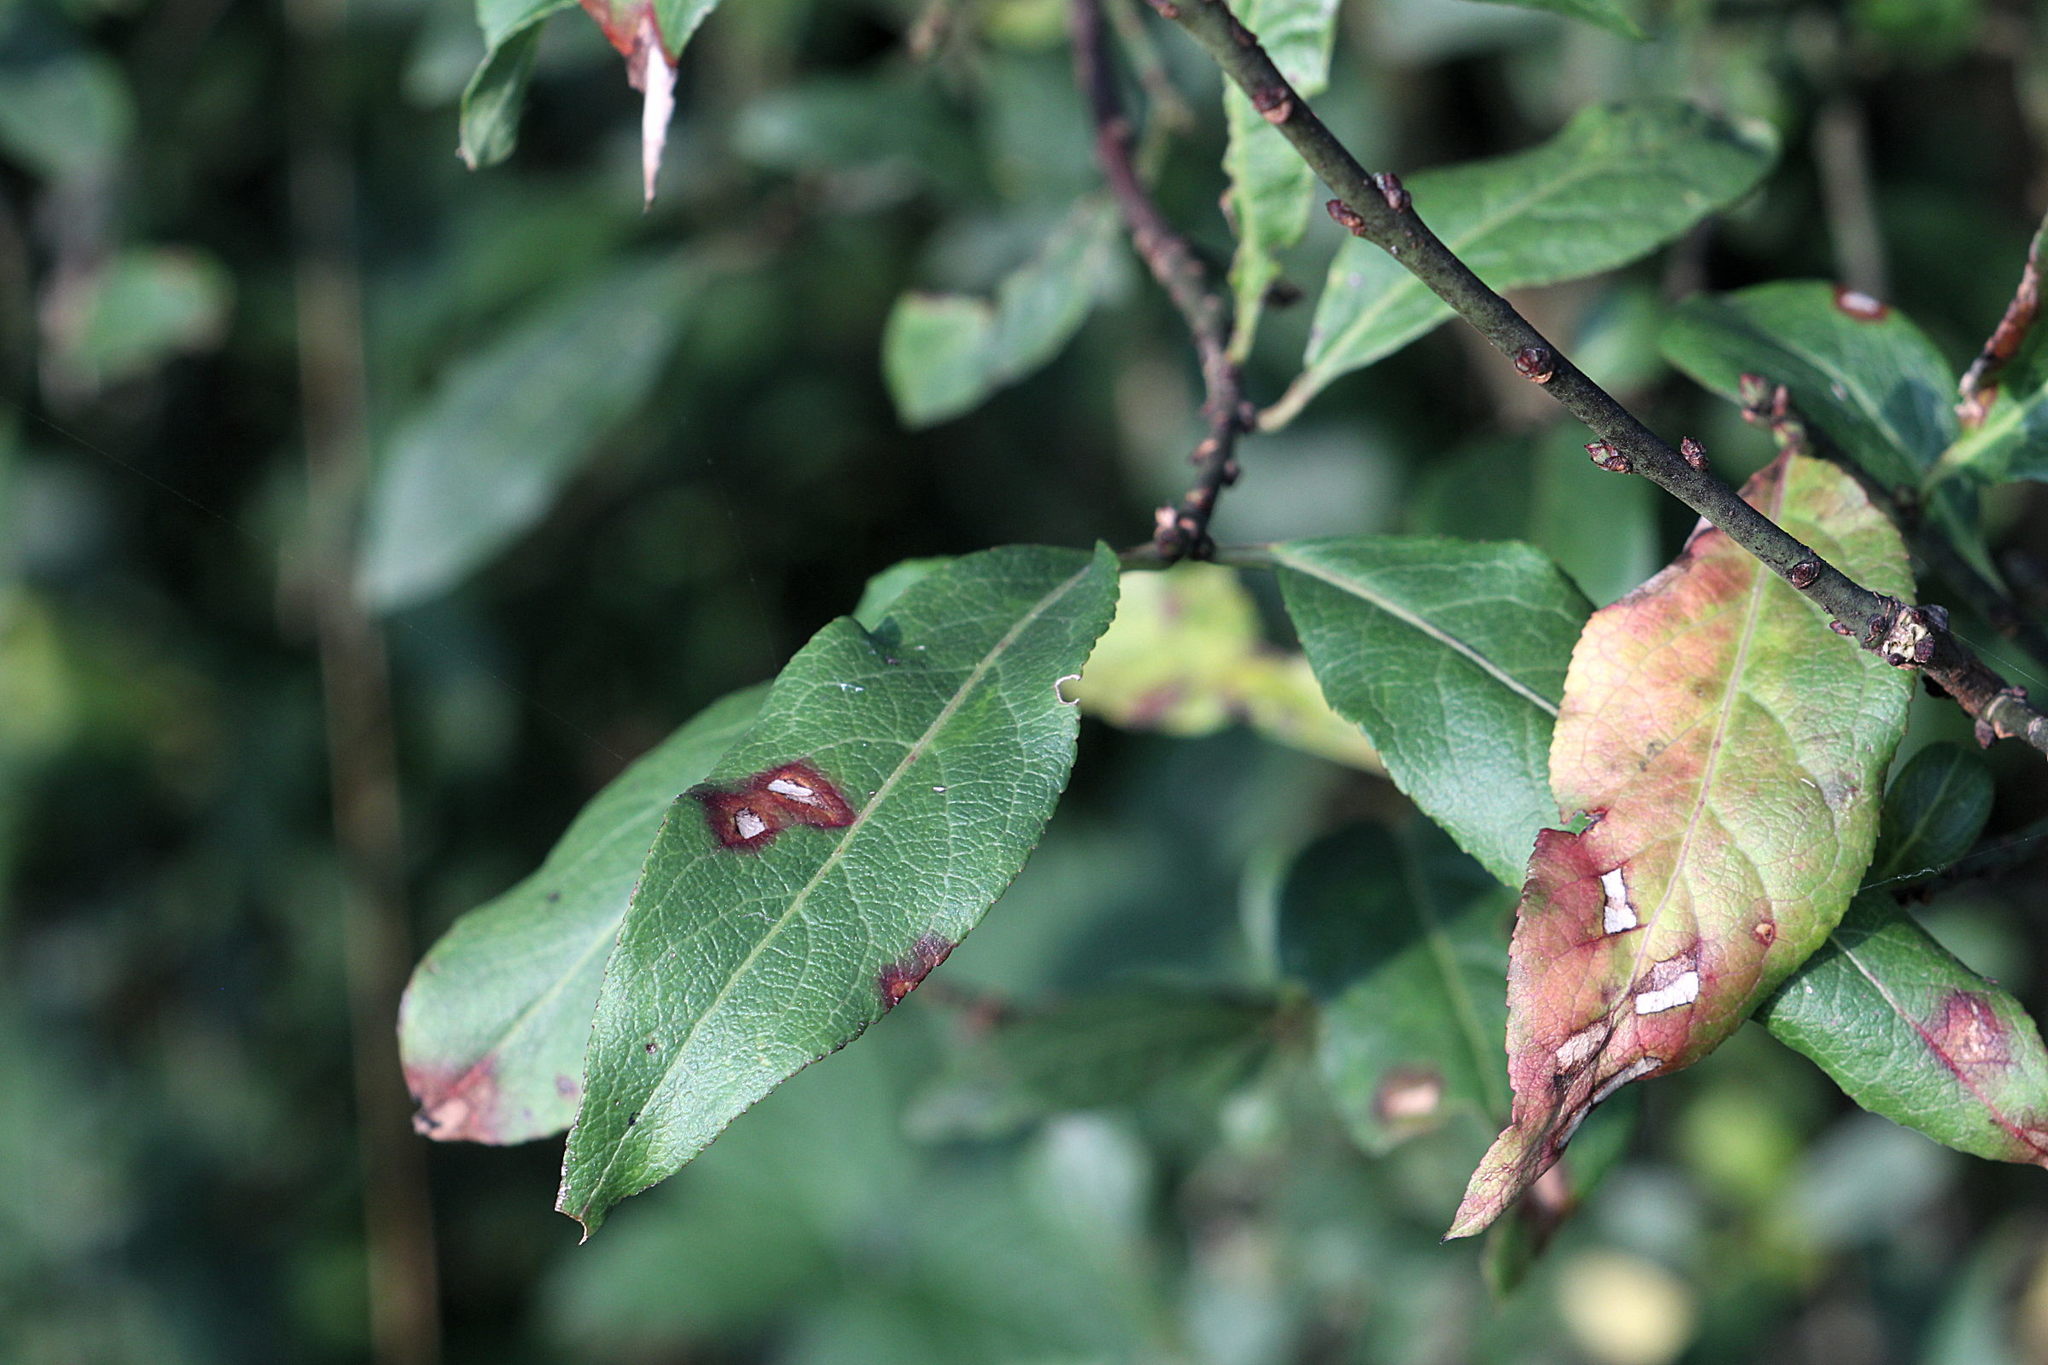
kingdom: Plantae
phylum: Tracheophyta
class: Magnoliopsida
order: Celastrales
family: Celastraceae
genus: Euonymus
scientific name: Euonymus europaeus
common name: Spindle
